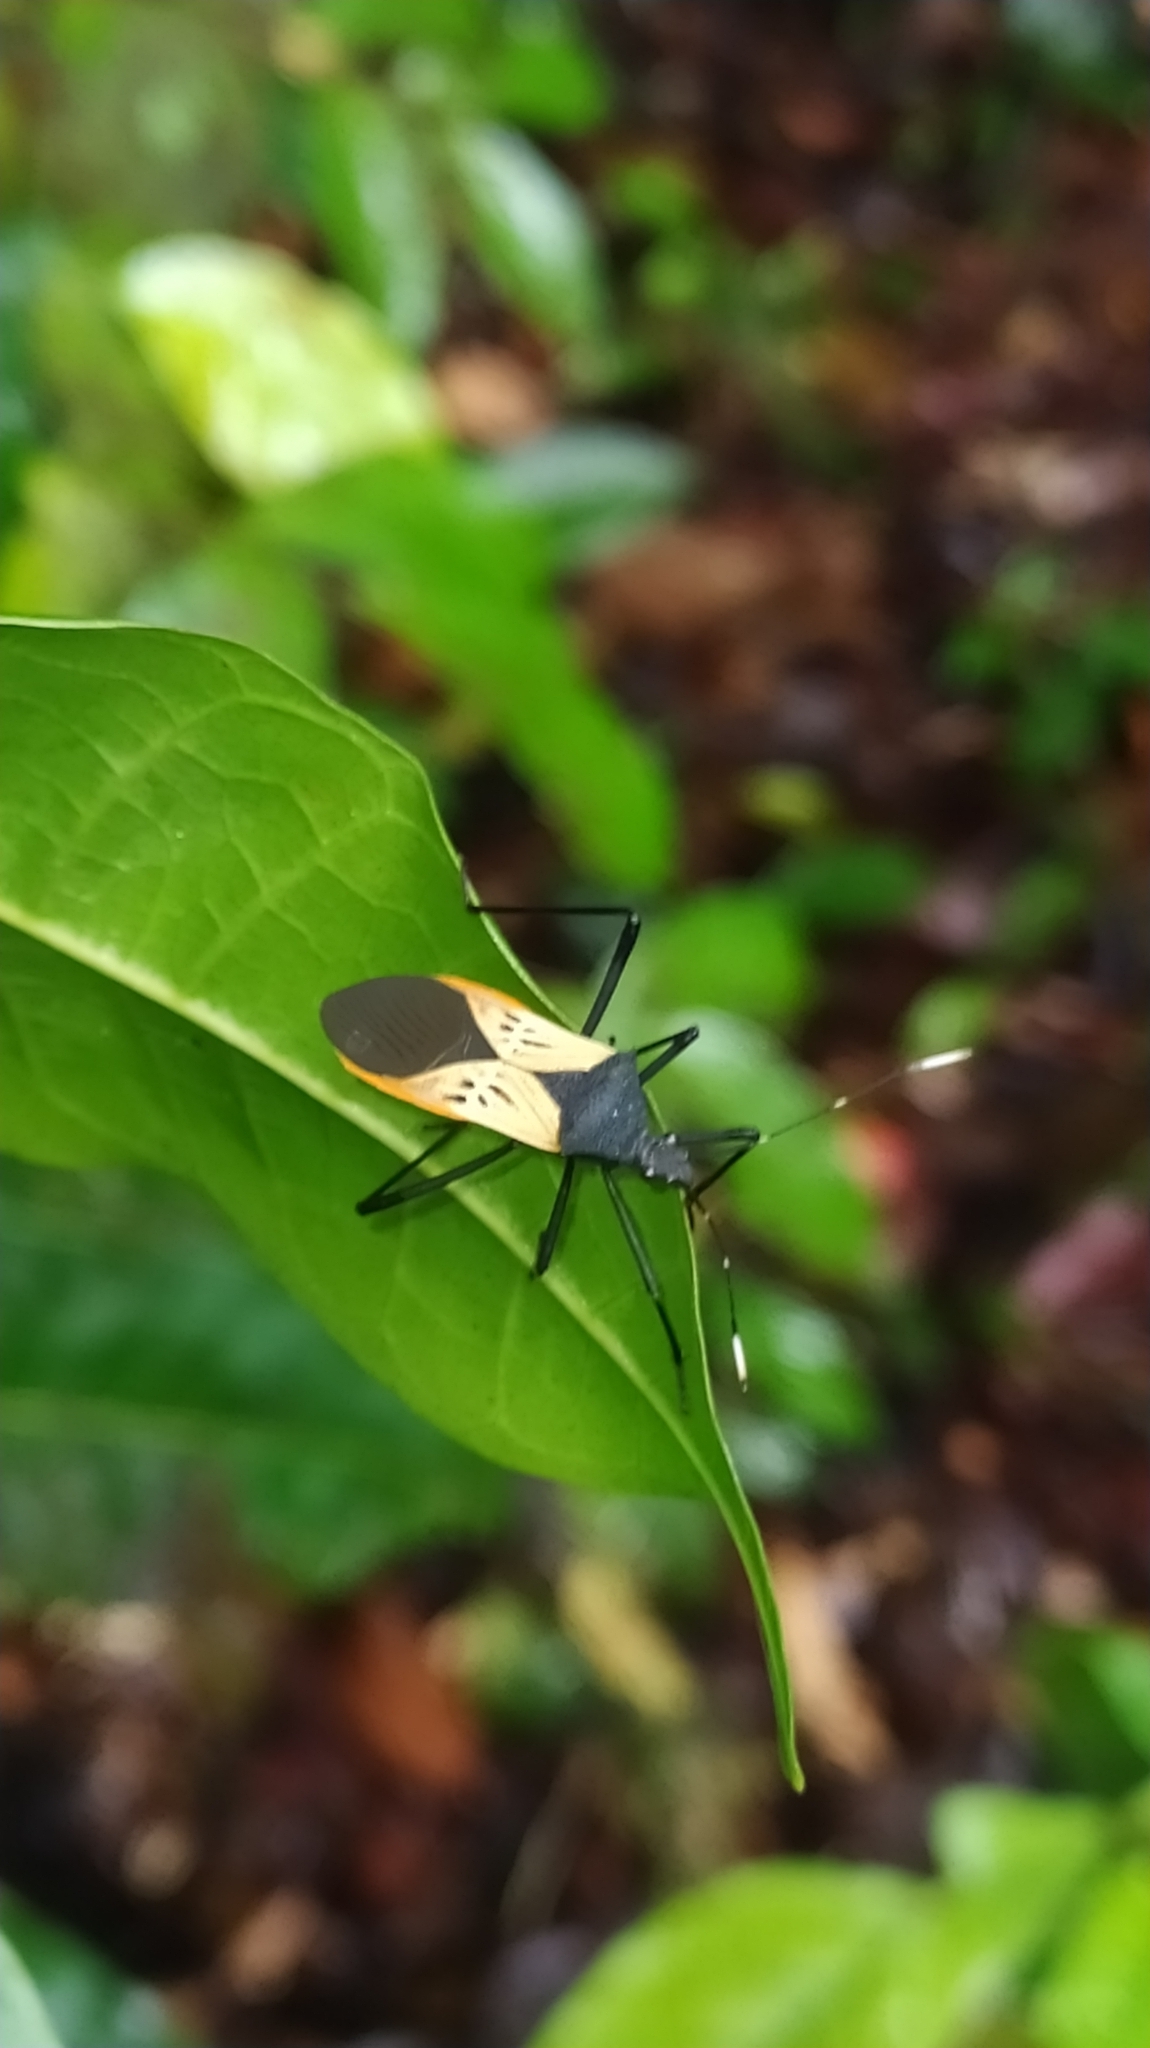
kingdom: Animalia
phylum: Arthropoda
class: Insecta
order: Hemiptera
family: Coreidae
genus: Leptoscelis
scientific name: Leptoscelis limbativentris
